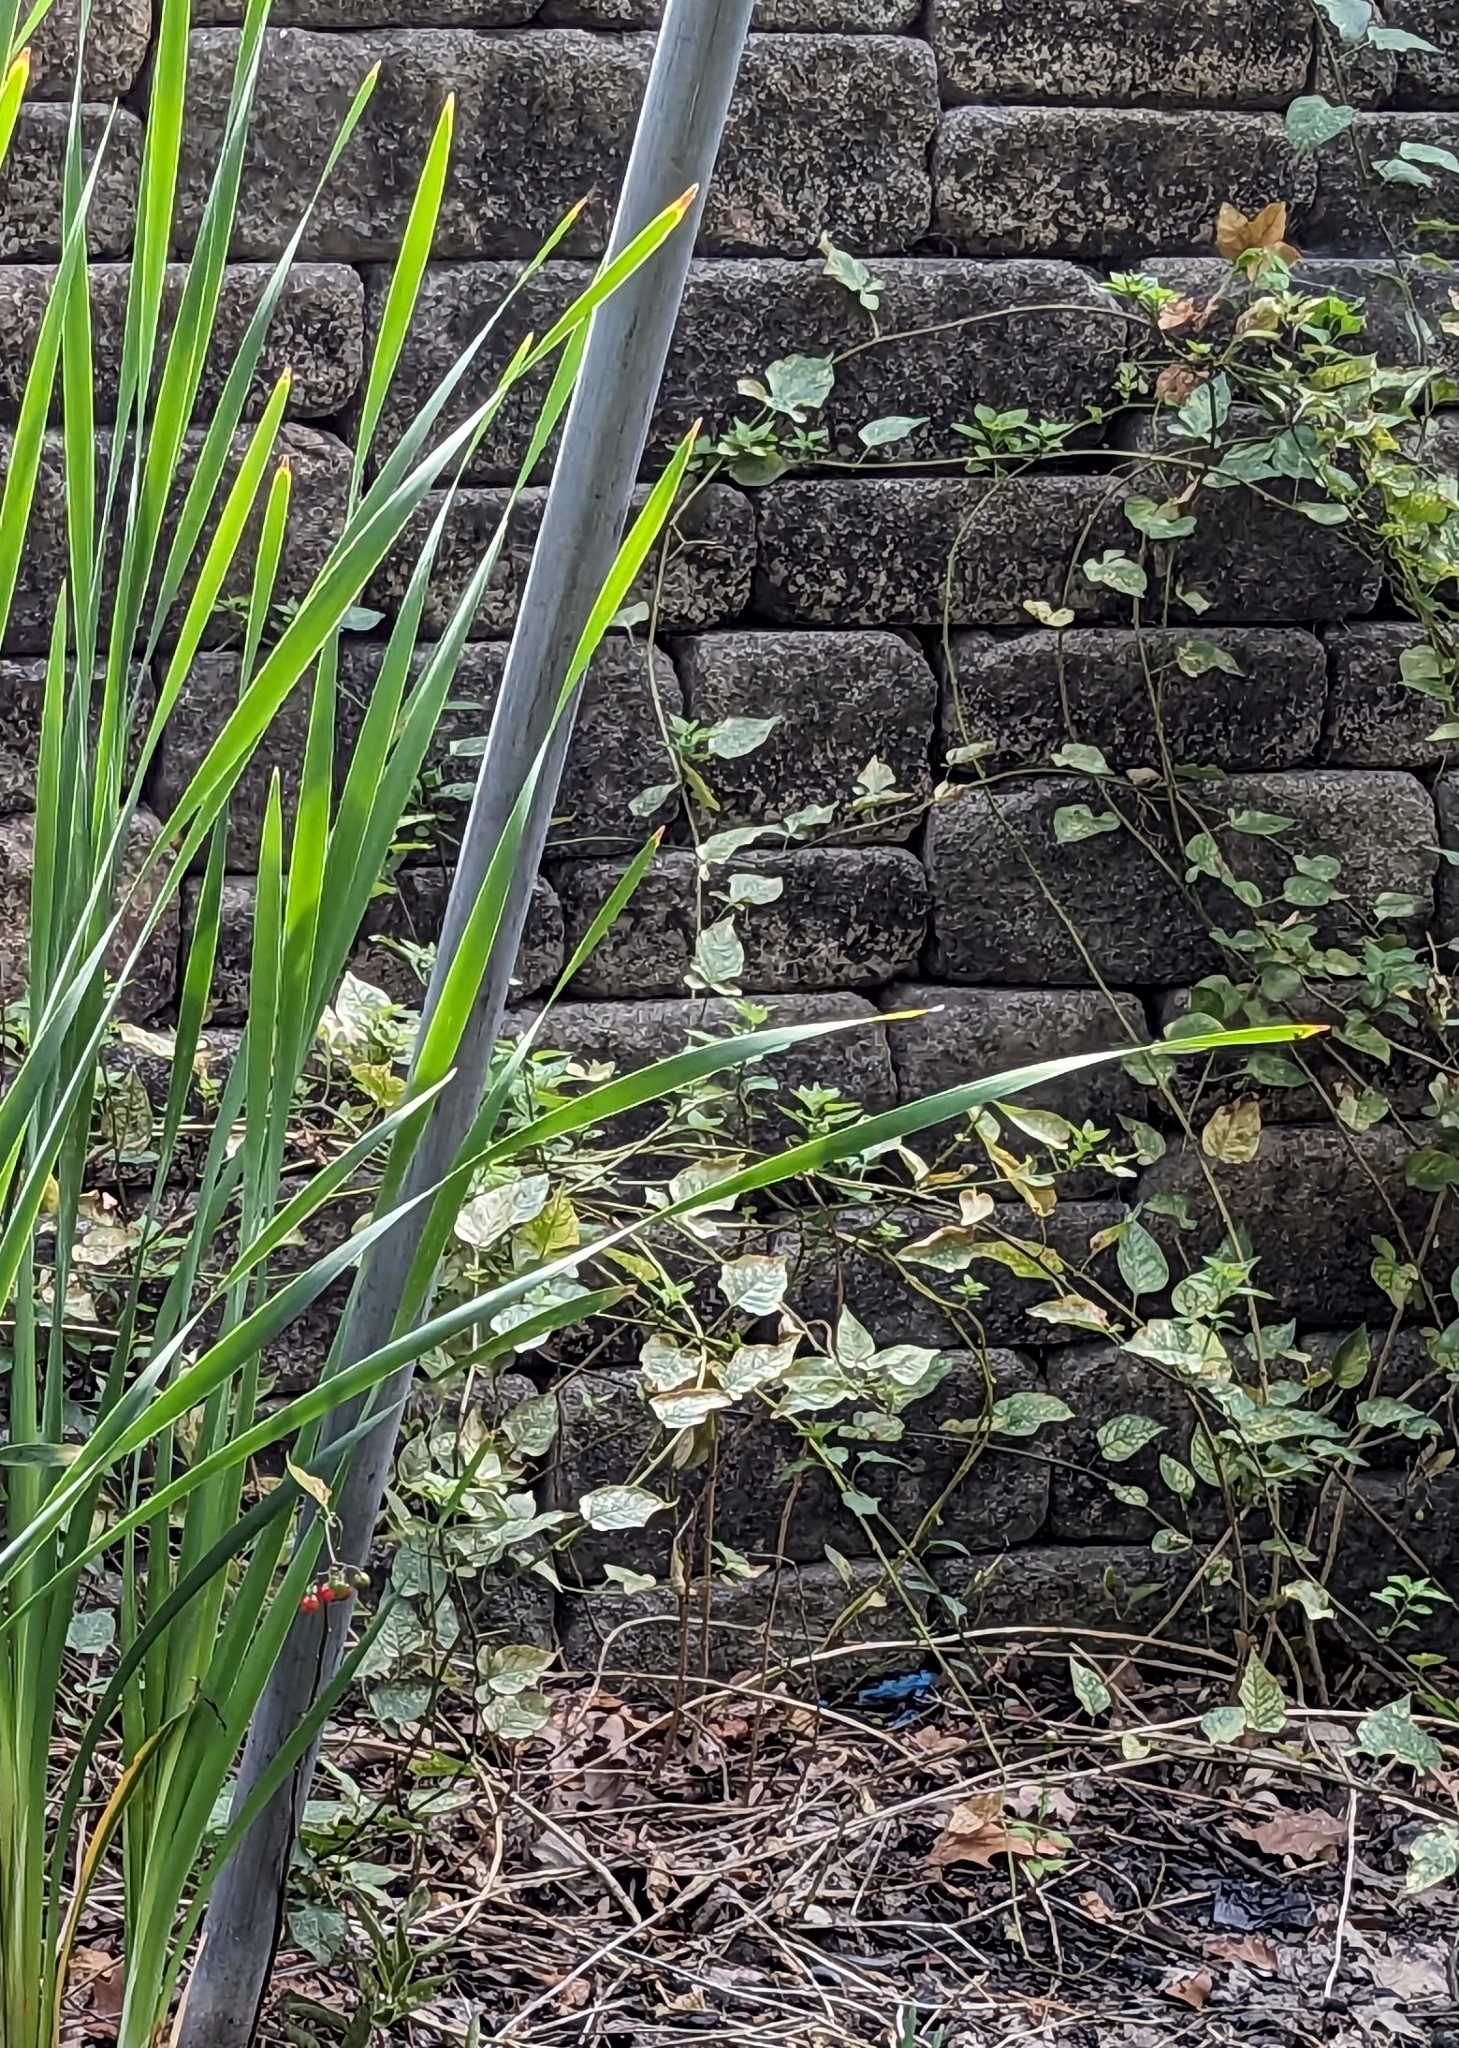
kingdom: Plantae
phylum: Tracheophyta
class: Magnoliopsida
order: Solanales
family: Solanaceae
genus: Solanum
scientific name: Solanum dulcamara
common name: Climbing nightshade
